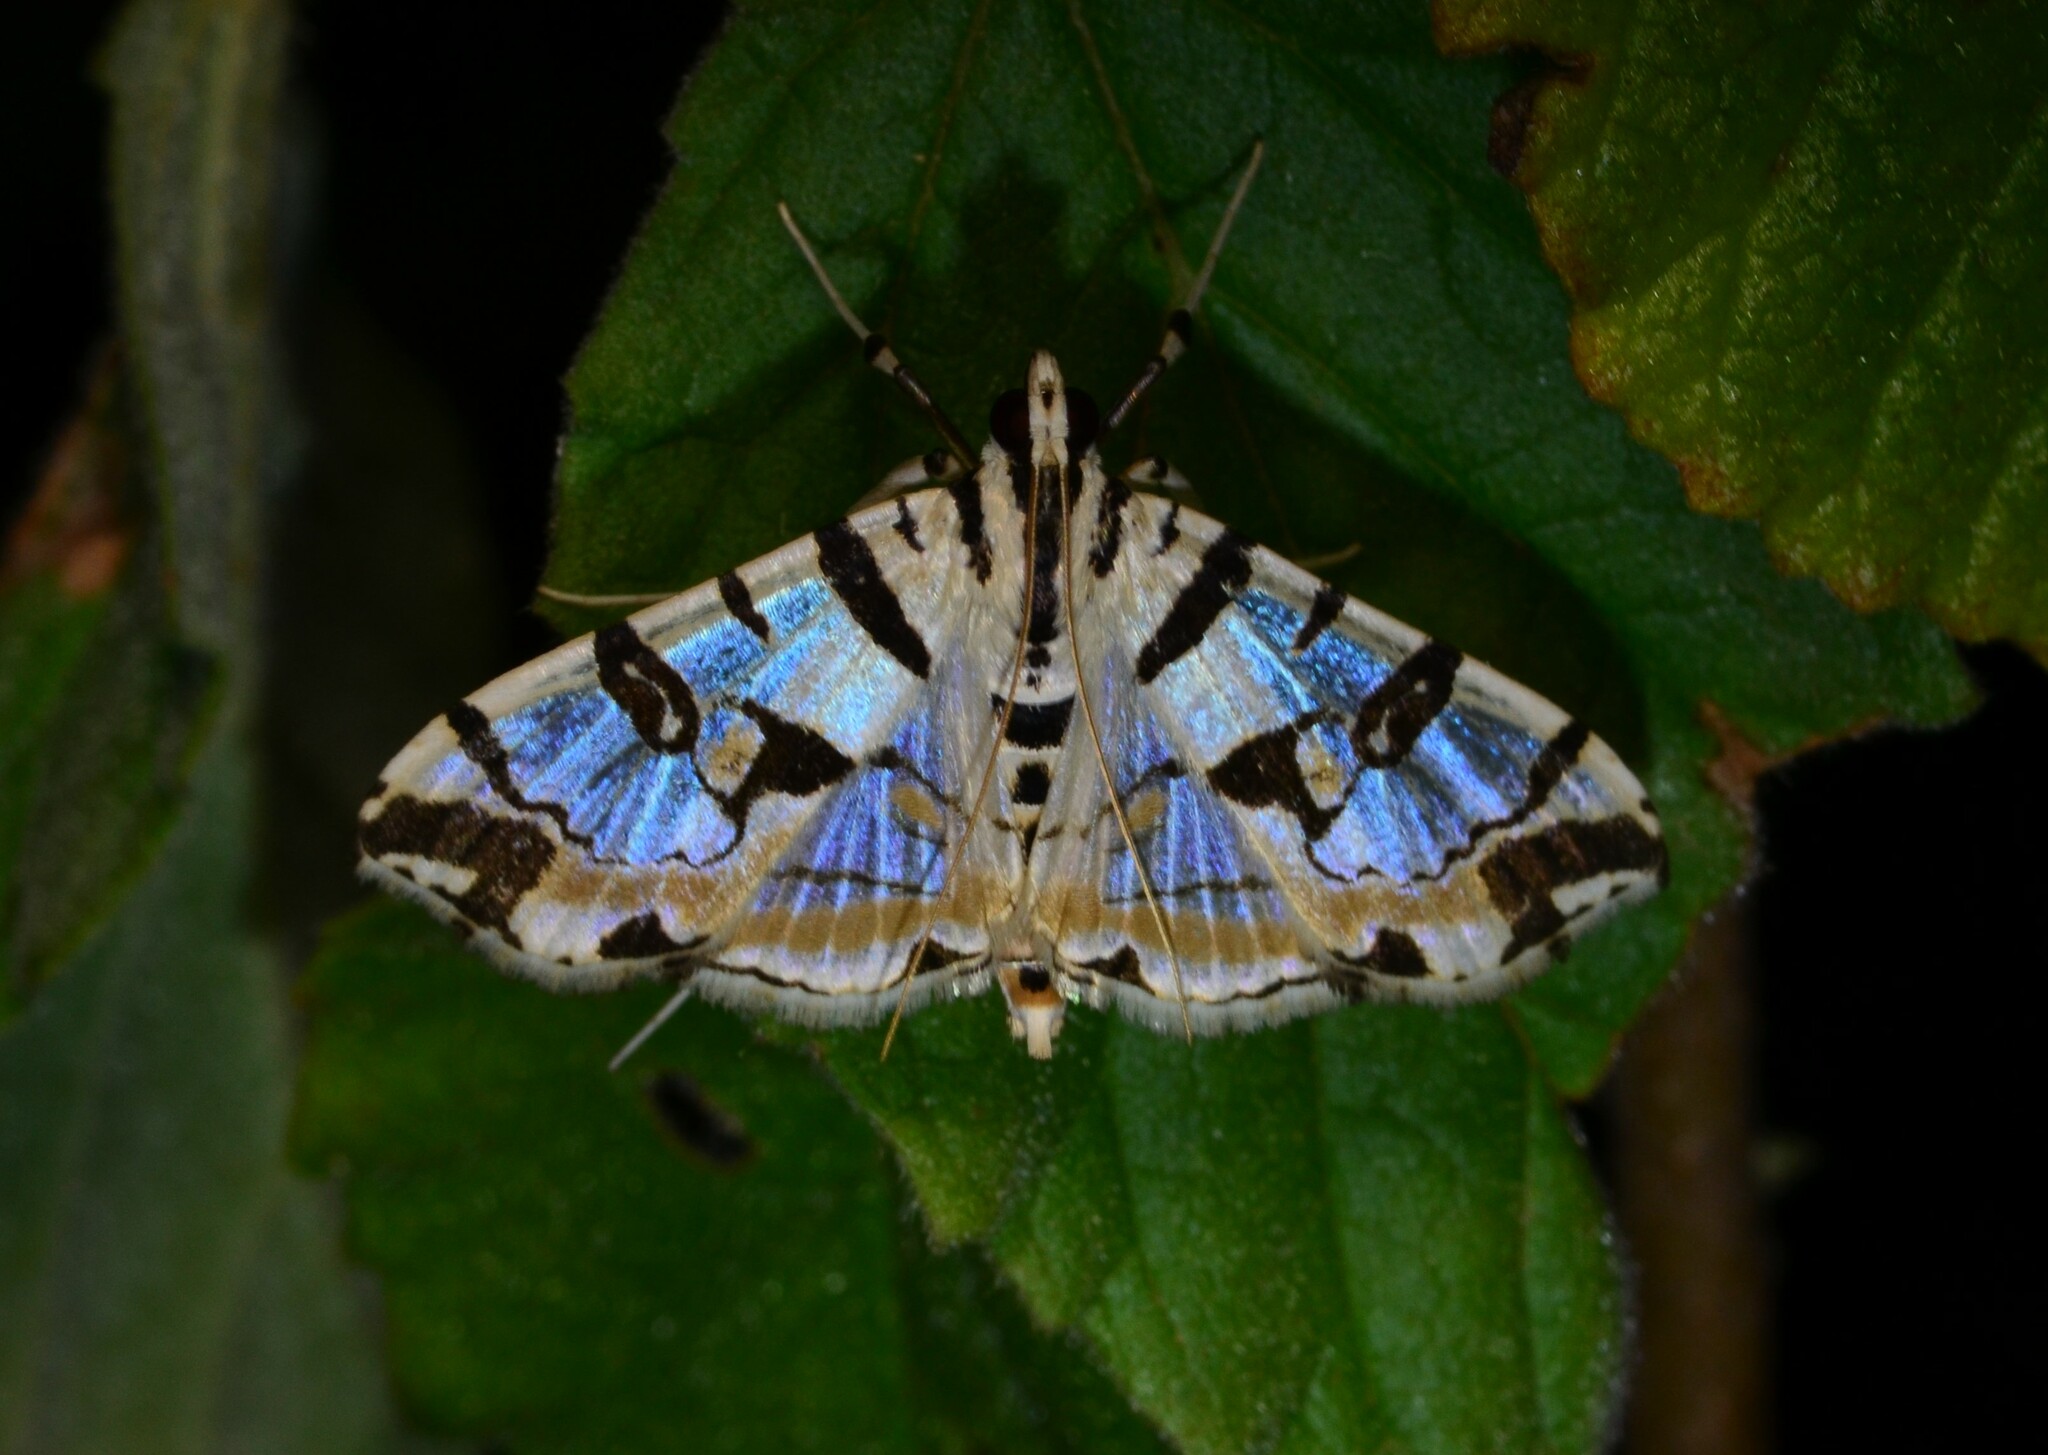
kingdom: Animalia
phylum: Arthropoda
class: Insecta
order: Lepidoptera
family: Crambidae
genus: Conchylodes
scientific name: Conchylodes salamisalis
